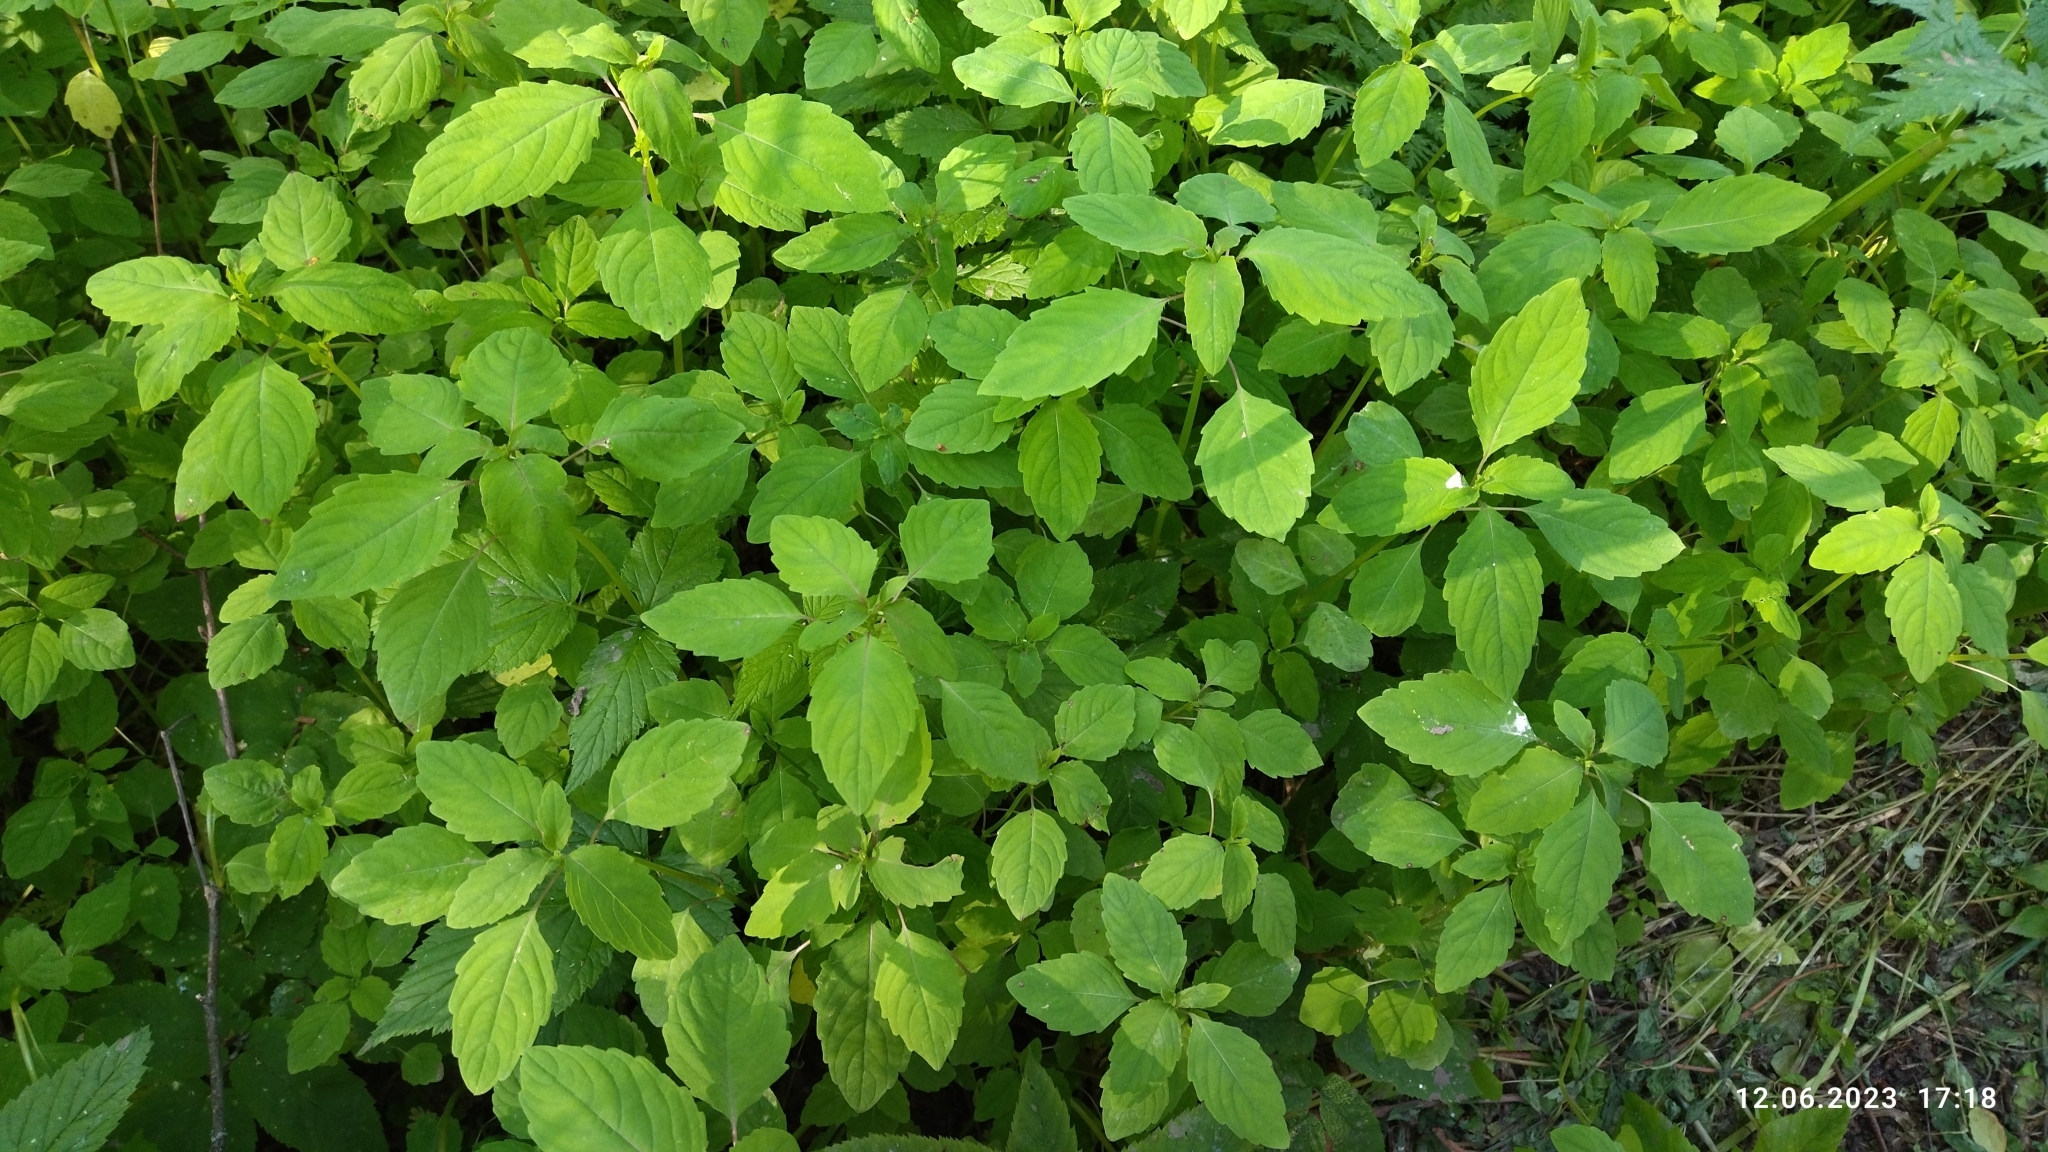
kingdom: Plantae
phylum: Tracheophyta
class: Magnoliopsida
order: Ericales
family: Balsaminaceae
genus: Impatiens
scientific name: Impatiens noli-tangere
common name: Touch-me-not balsam
